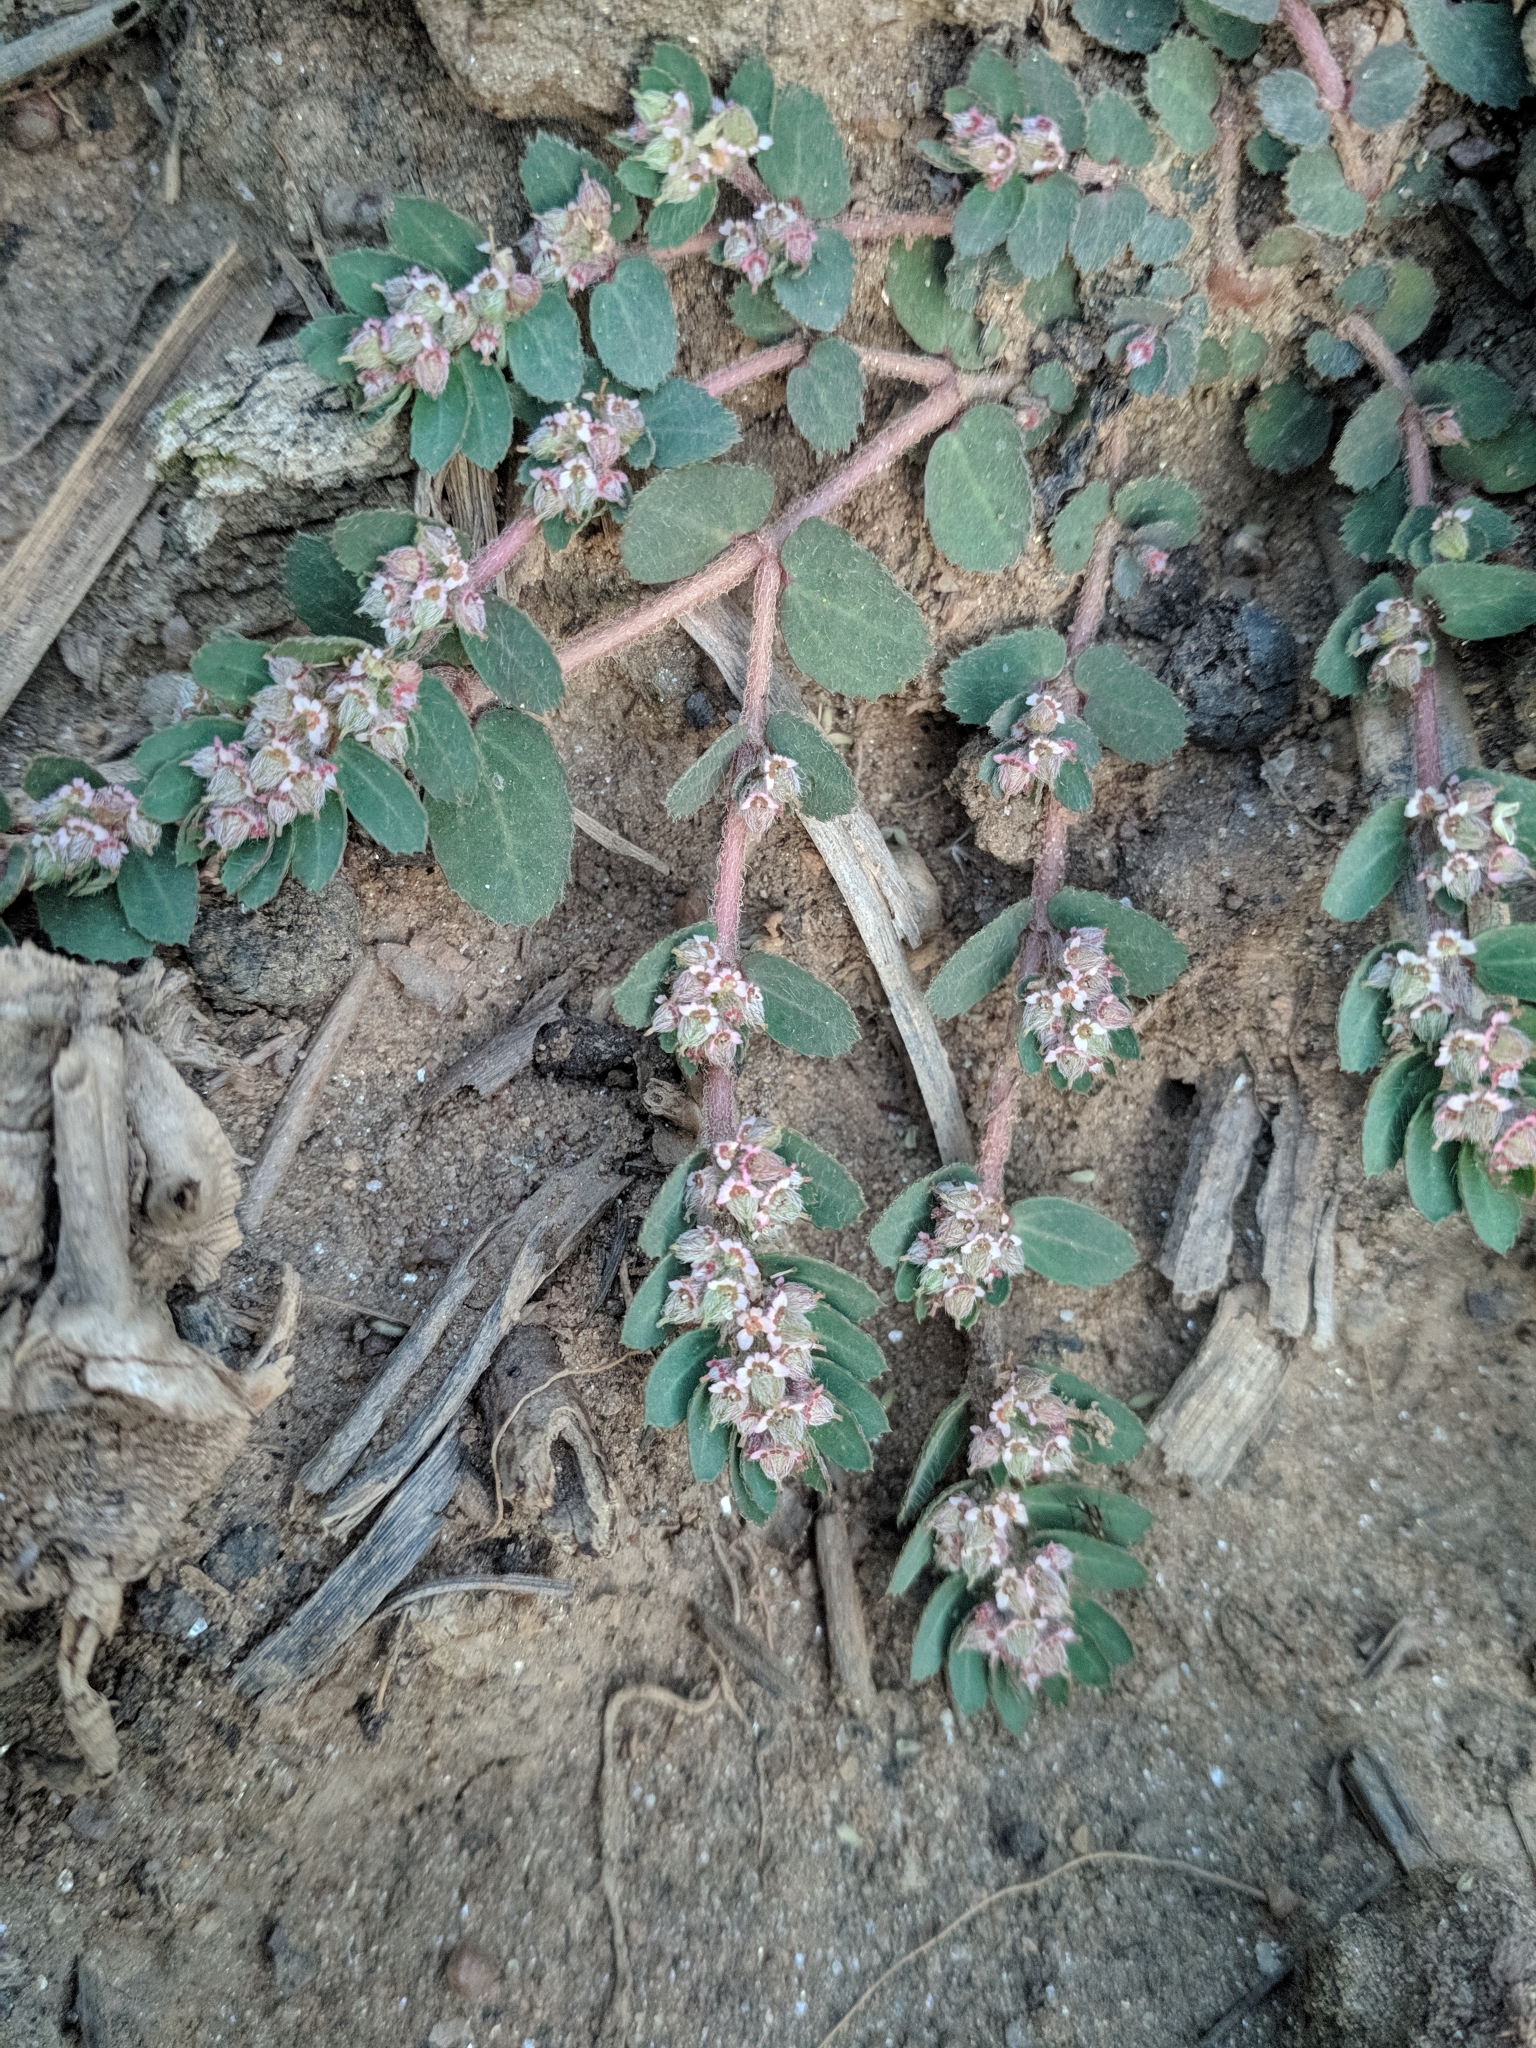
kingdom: Plantae
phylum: Tracheophyta
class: Magnoliopsida
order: Malpighiales
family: Euphorbiaceae
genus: Euphorbia
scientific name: Euphorbia dioeca
